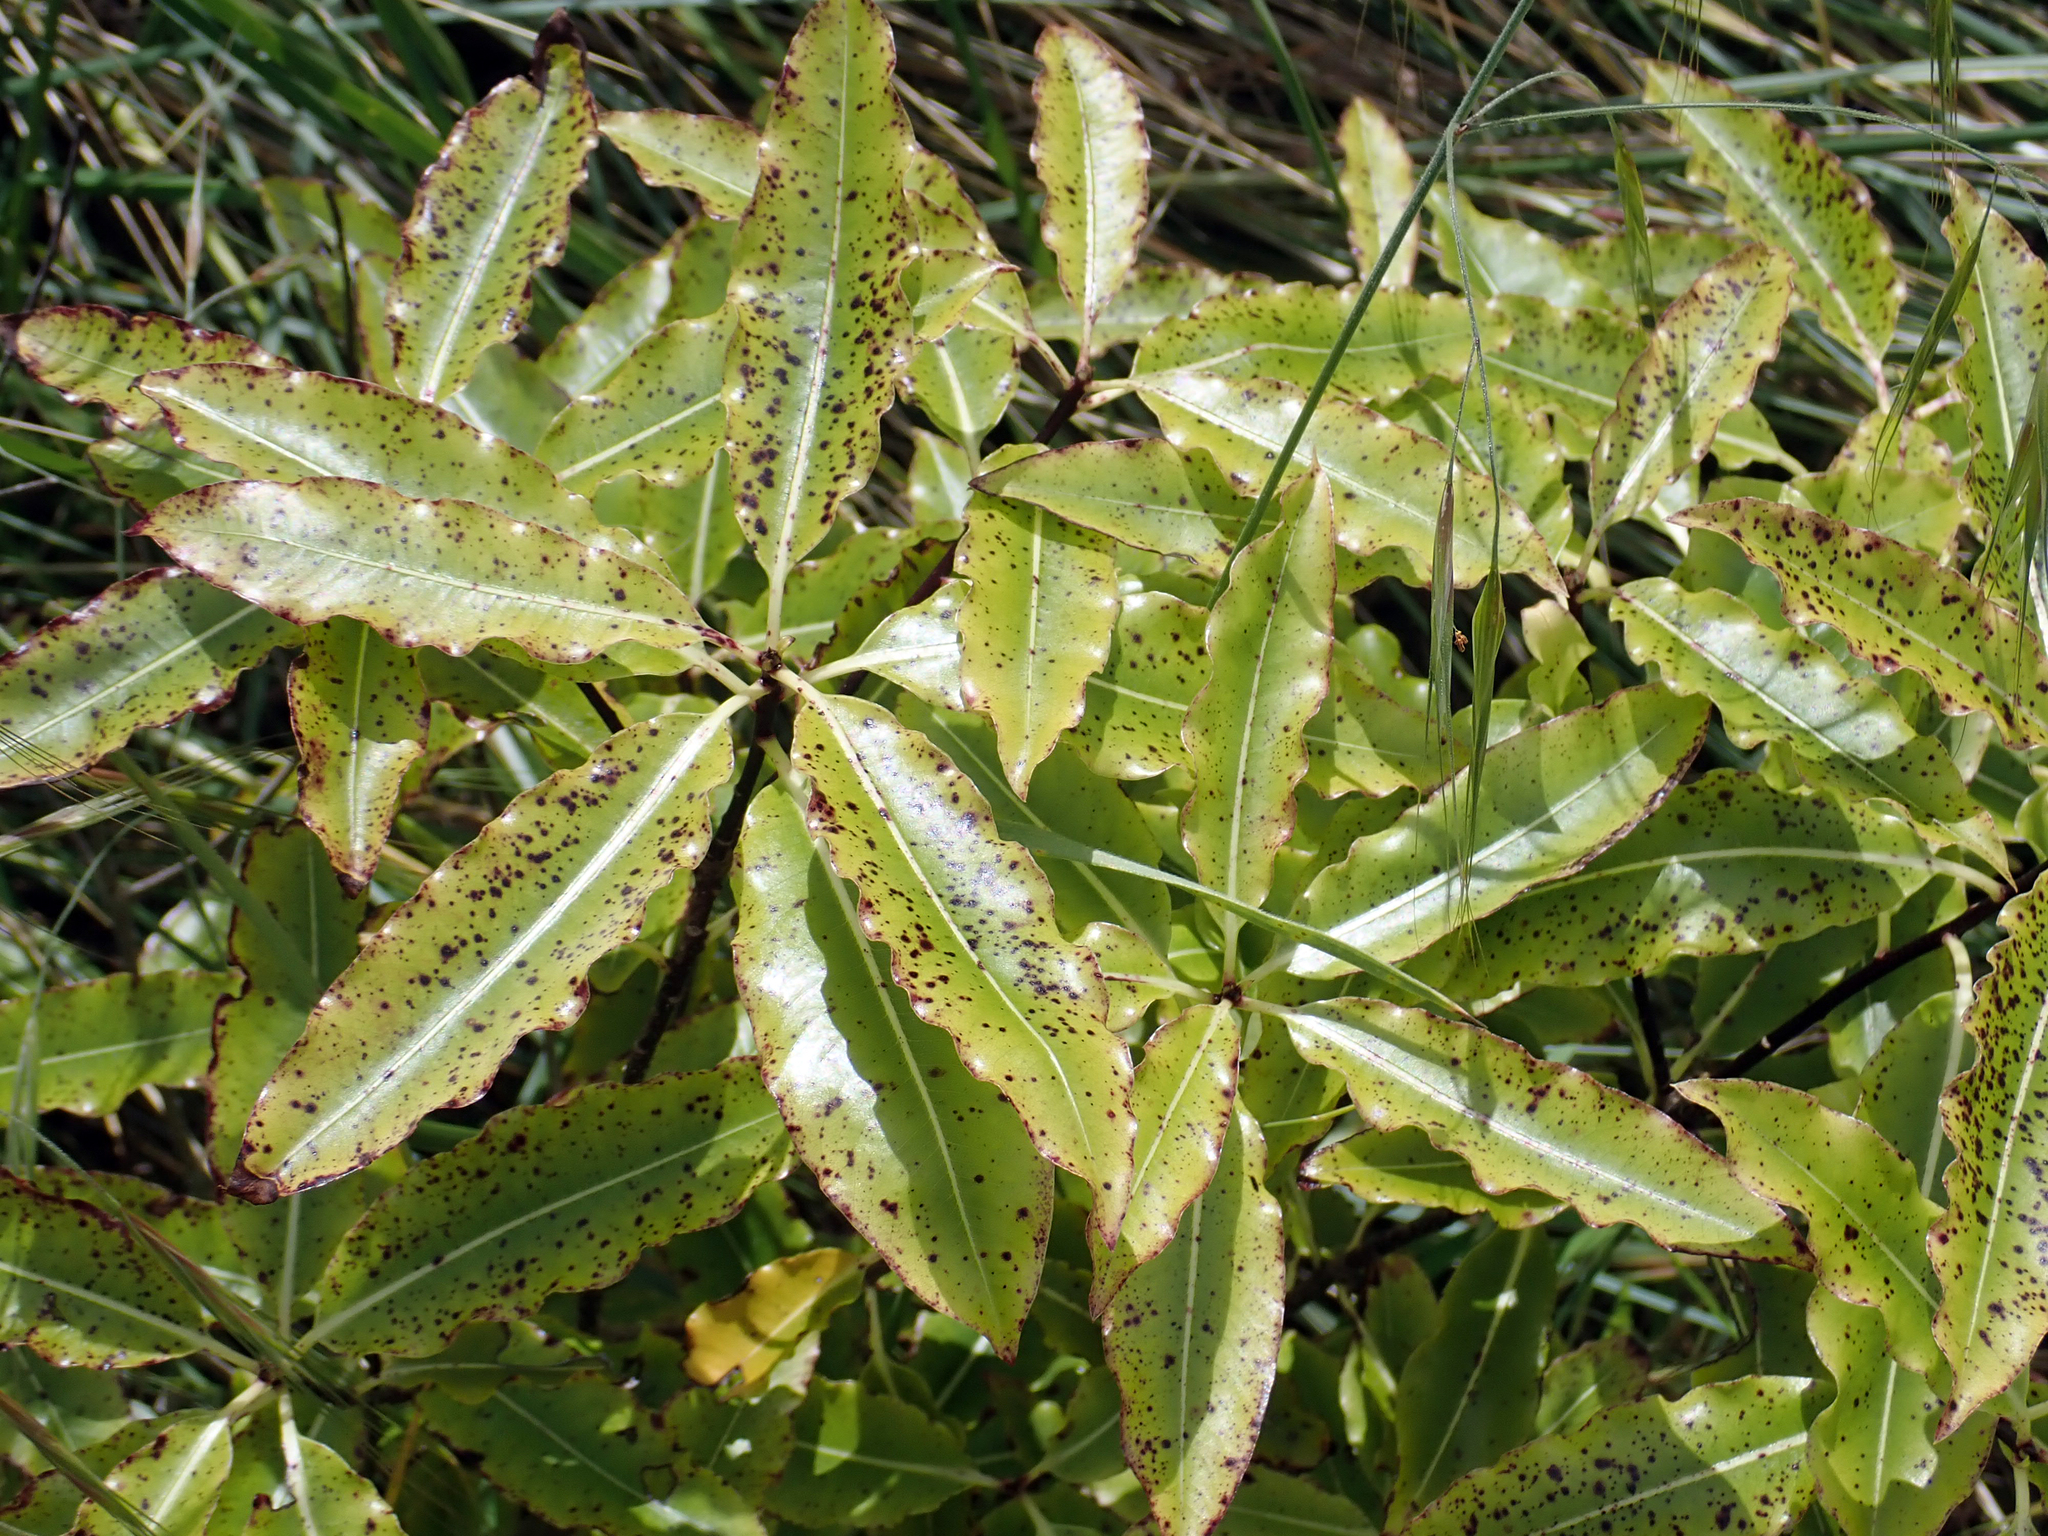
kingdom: Plantae
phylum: Tracheophyta
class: Magnoliopsida
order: Apiales
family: Pittosporaceae
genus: Pittosporum
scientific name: Pittosporum eugenioides
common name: Lemonwood
